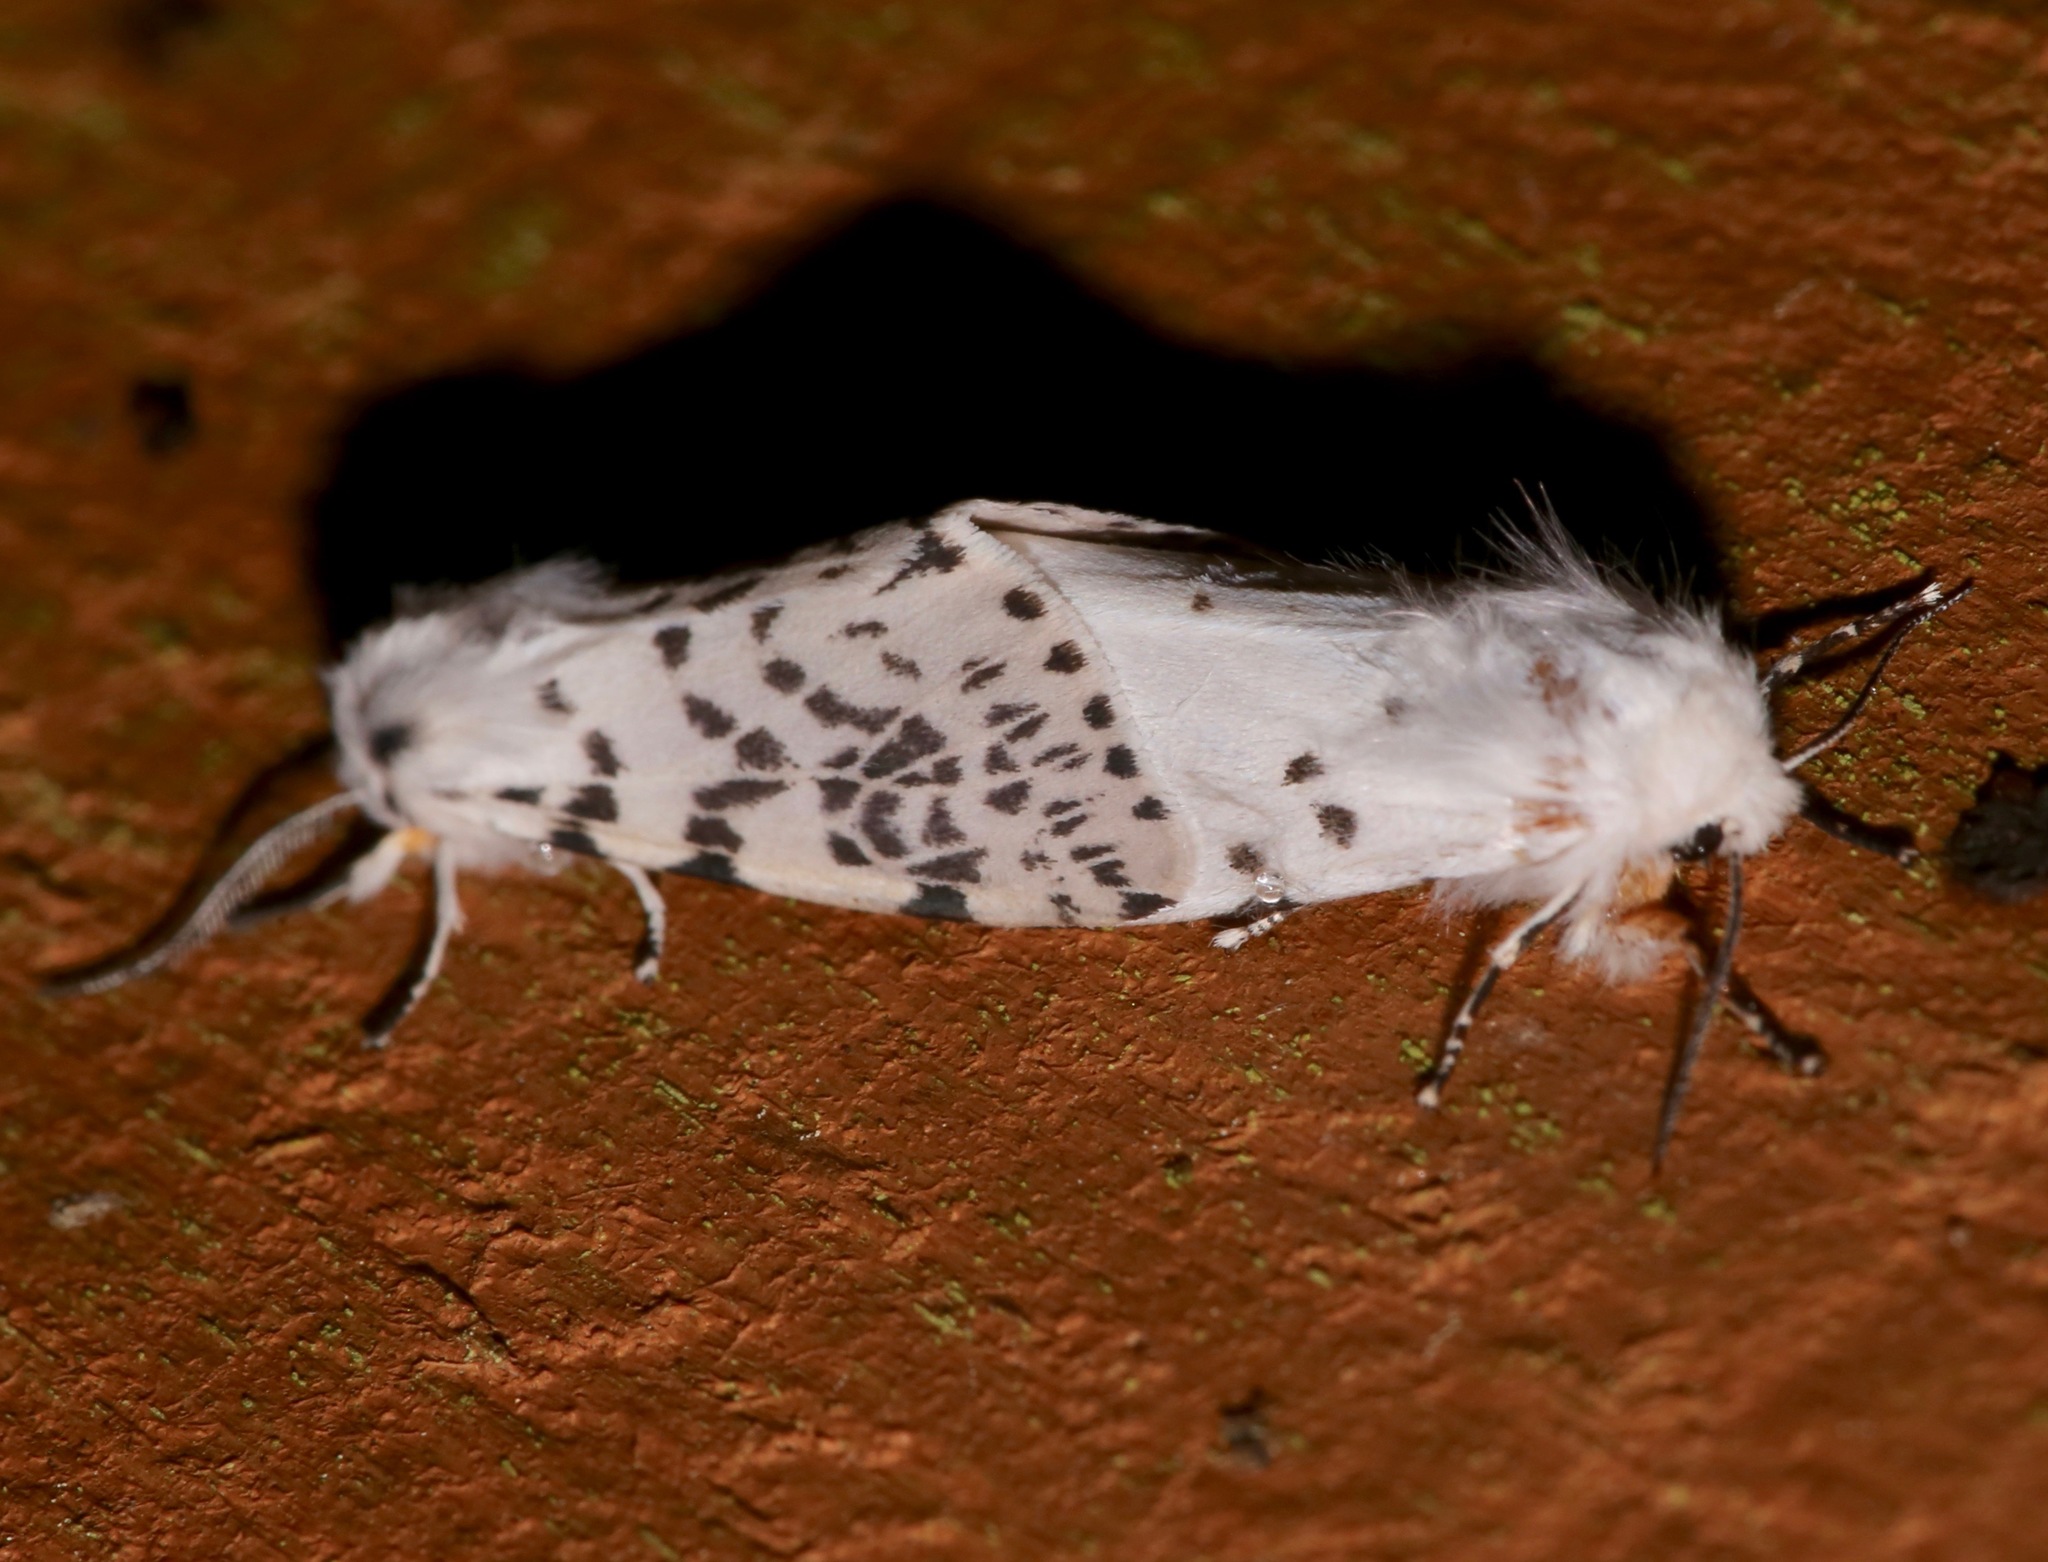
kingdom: Animalia
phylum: Arthropoda
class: Insecta
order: Lepidoptera
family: Erebidae
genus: Hyphantria
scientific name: Hyphantria cunea
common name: American white moth
